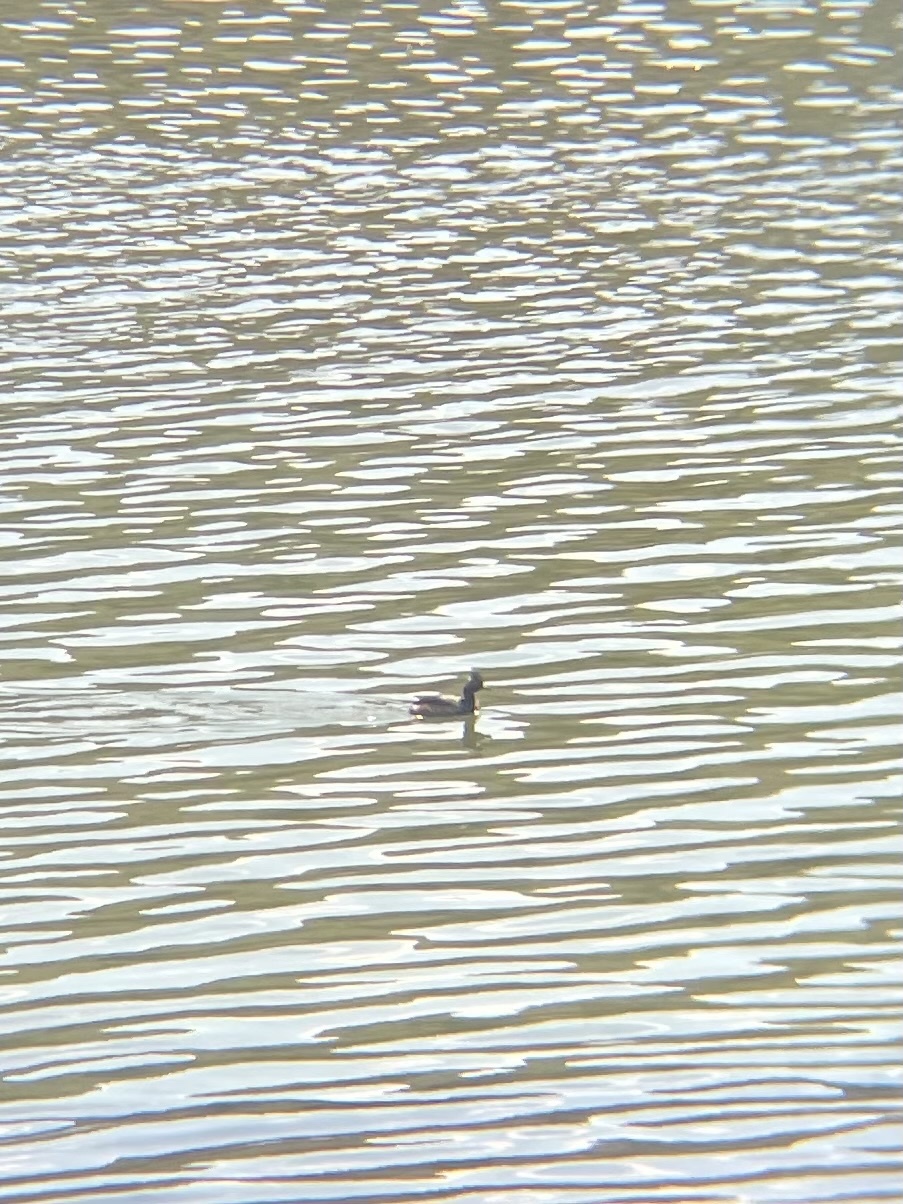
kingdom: Animalia
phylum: Chordata
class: Aves
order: Podicipediformes
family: Podicipedidae
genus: Podiceps
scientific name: Podiceps nigricollis
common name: Black-necked grebe
